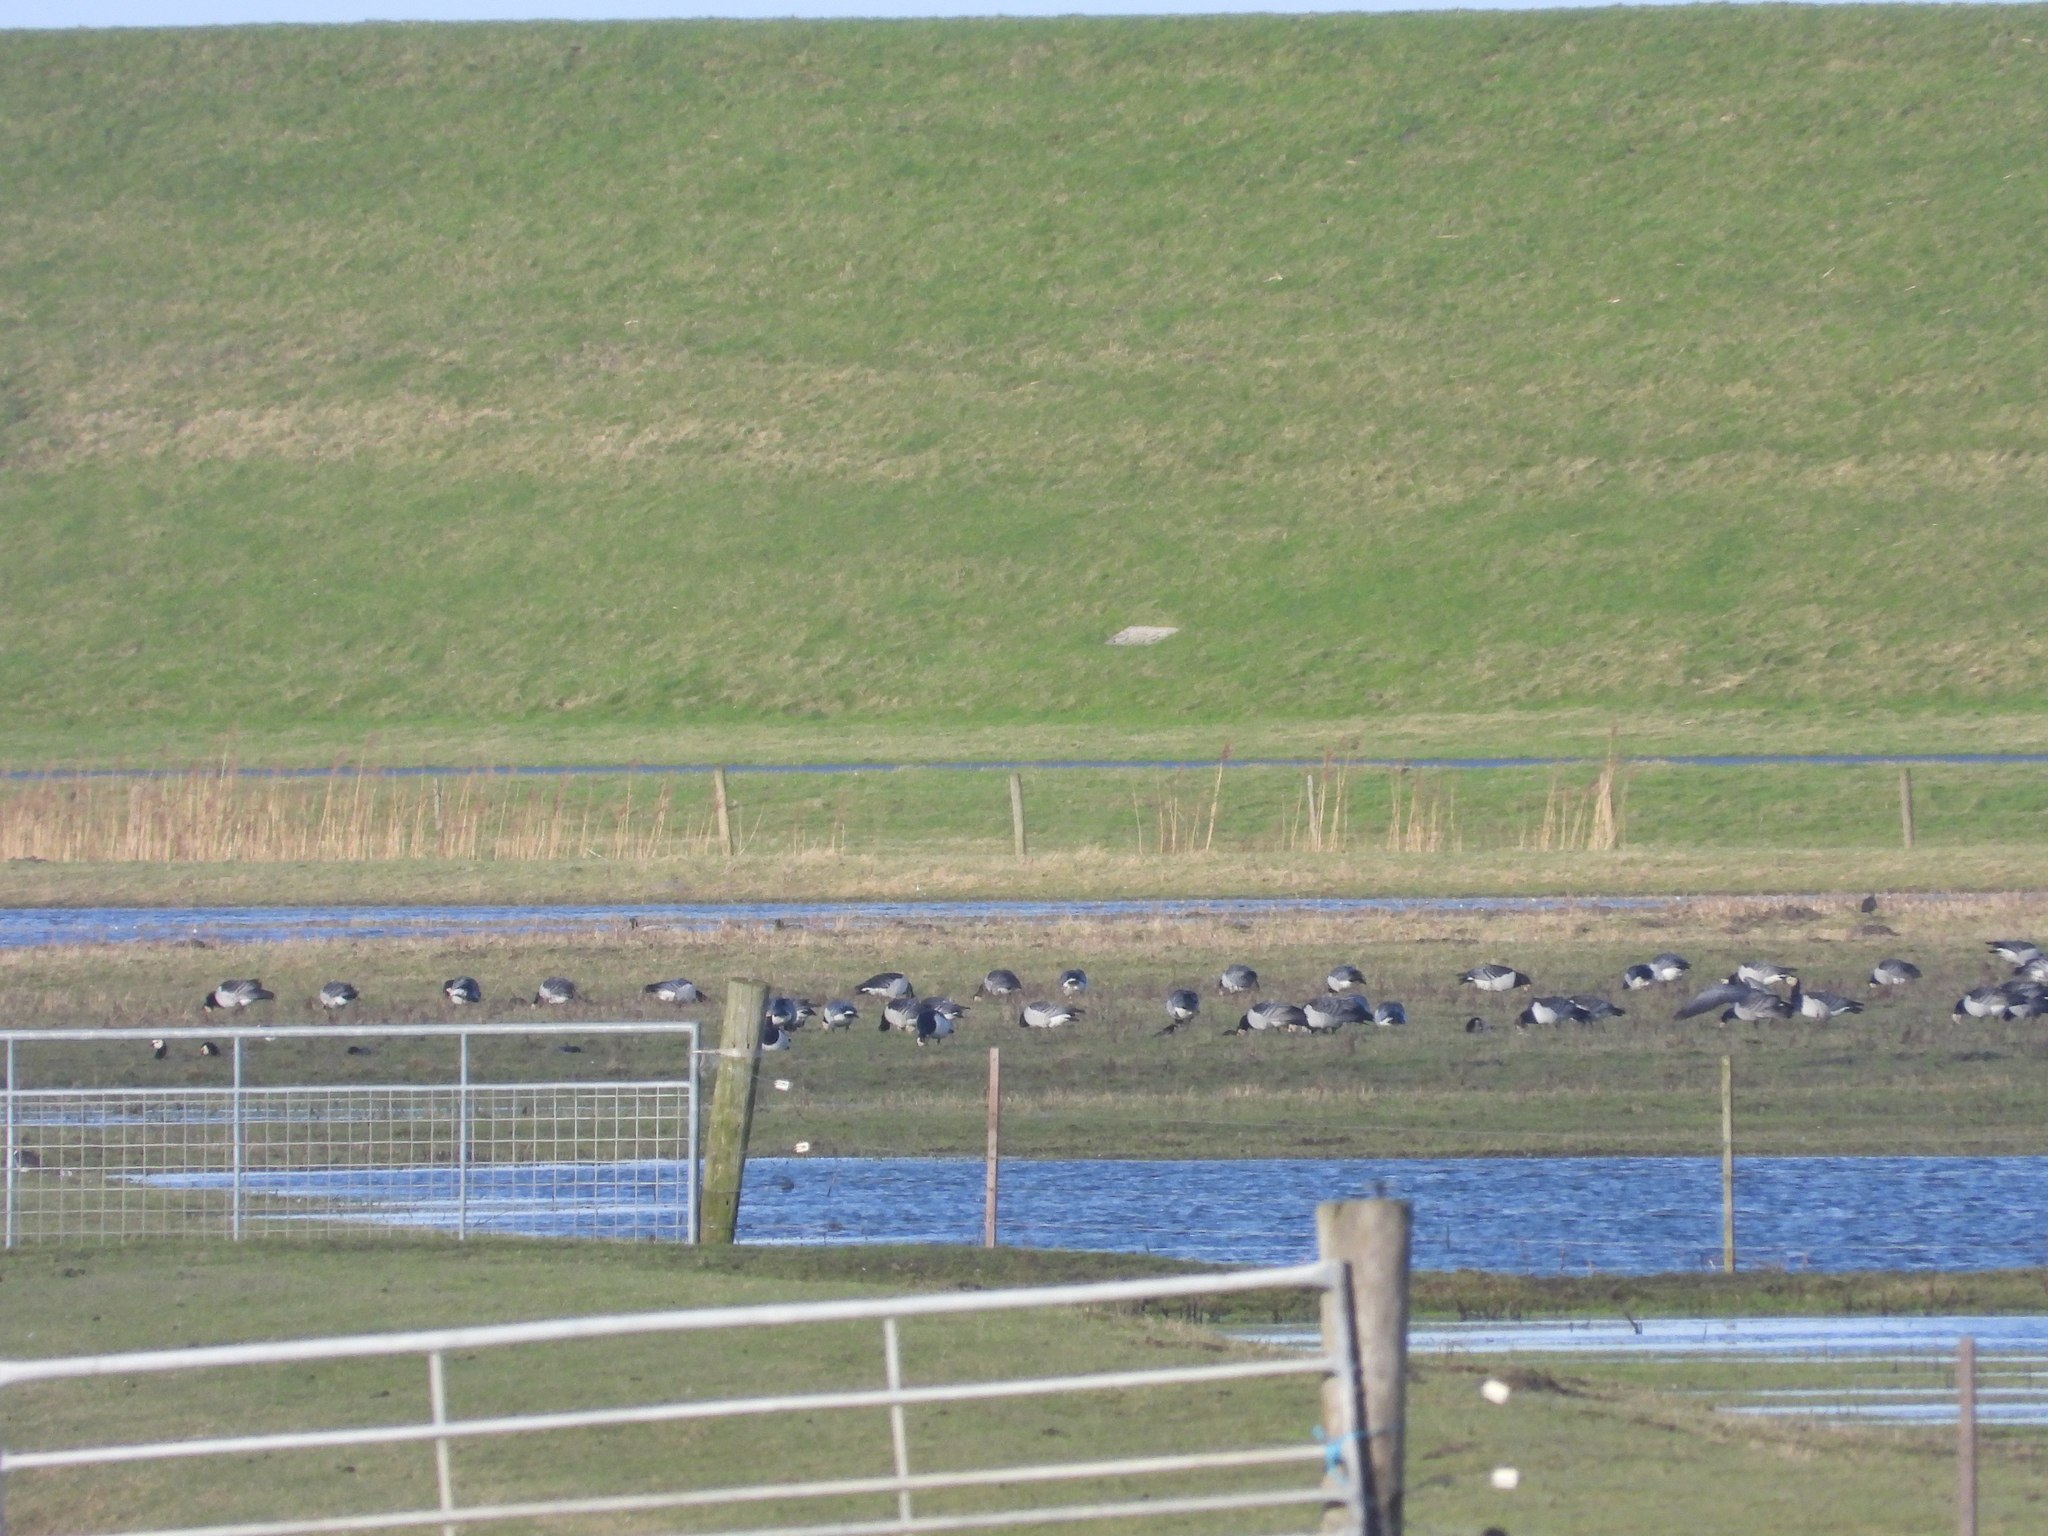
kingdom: Animalia
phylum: Chordata
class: Aves
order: Anseriformes
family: Anatidae
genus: Branta
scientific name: Branta leucopsis
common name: Barnacle goose
